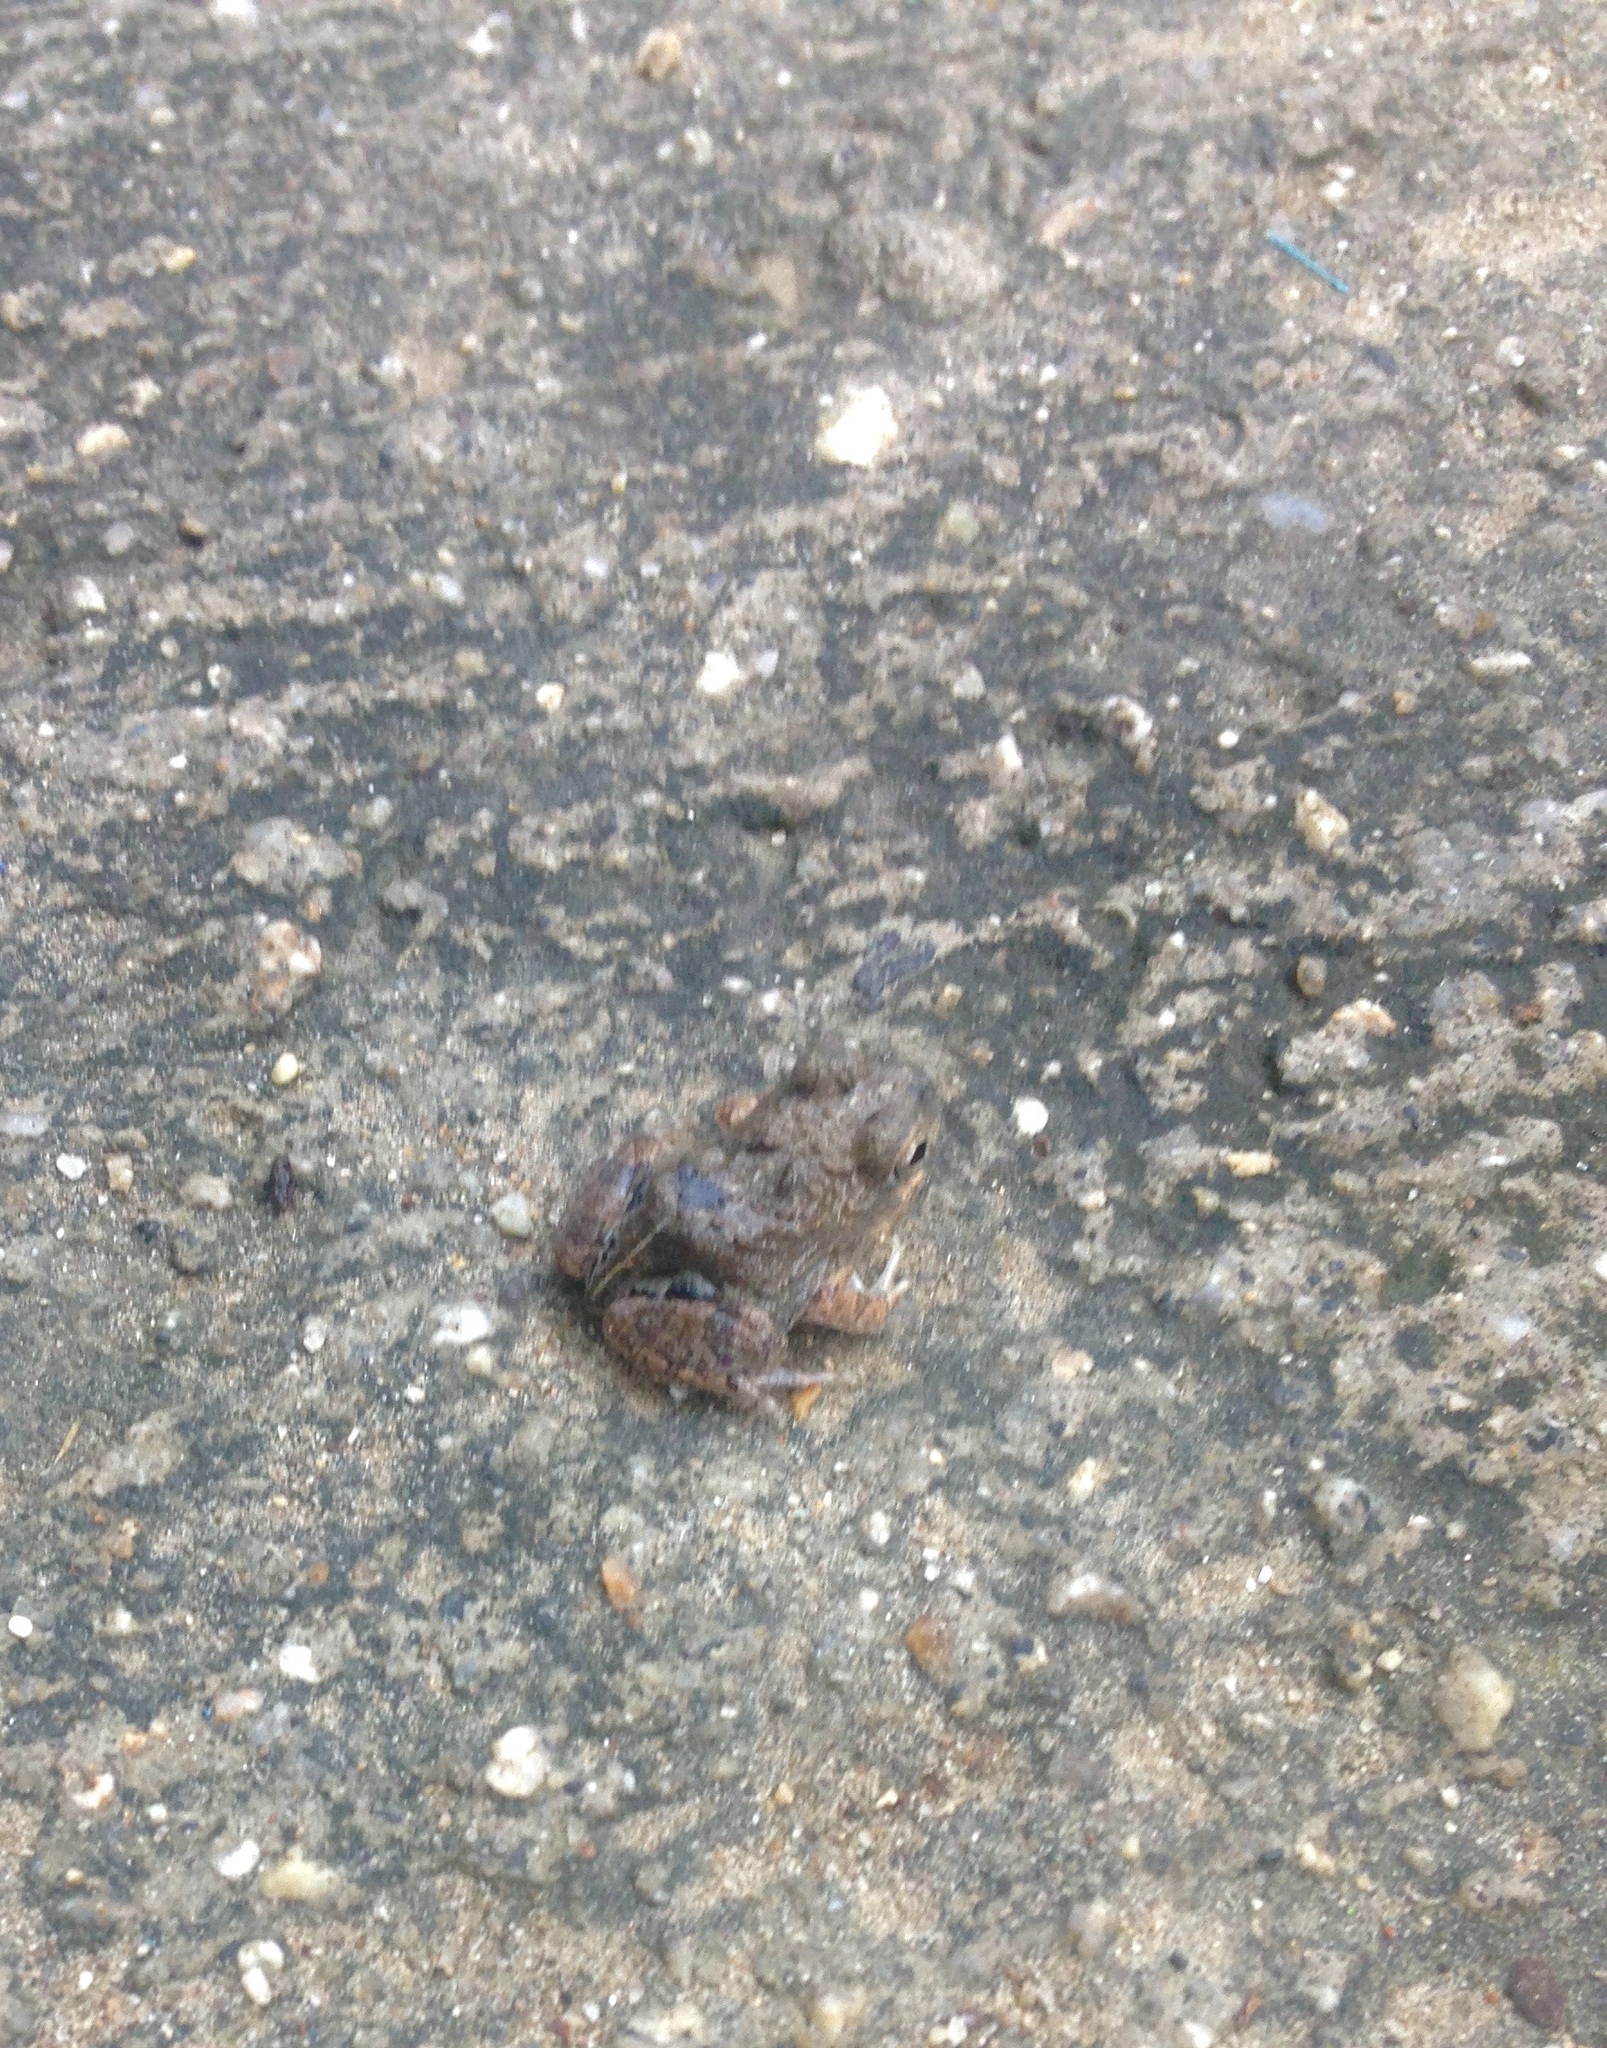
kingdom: Animalia
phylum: Chordata
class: Amphibia
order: Anura
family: Leptodactylidae
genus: Pleurodema
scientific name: Pleurodema brachyops
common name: Colombian four-eyed frog
